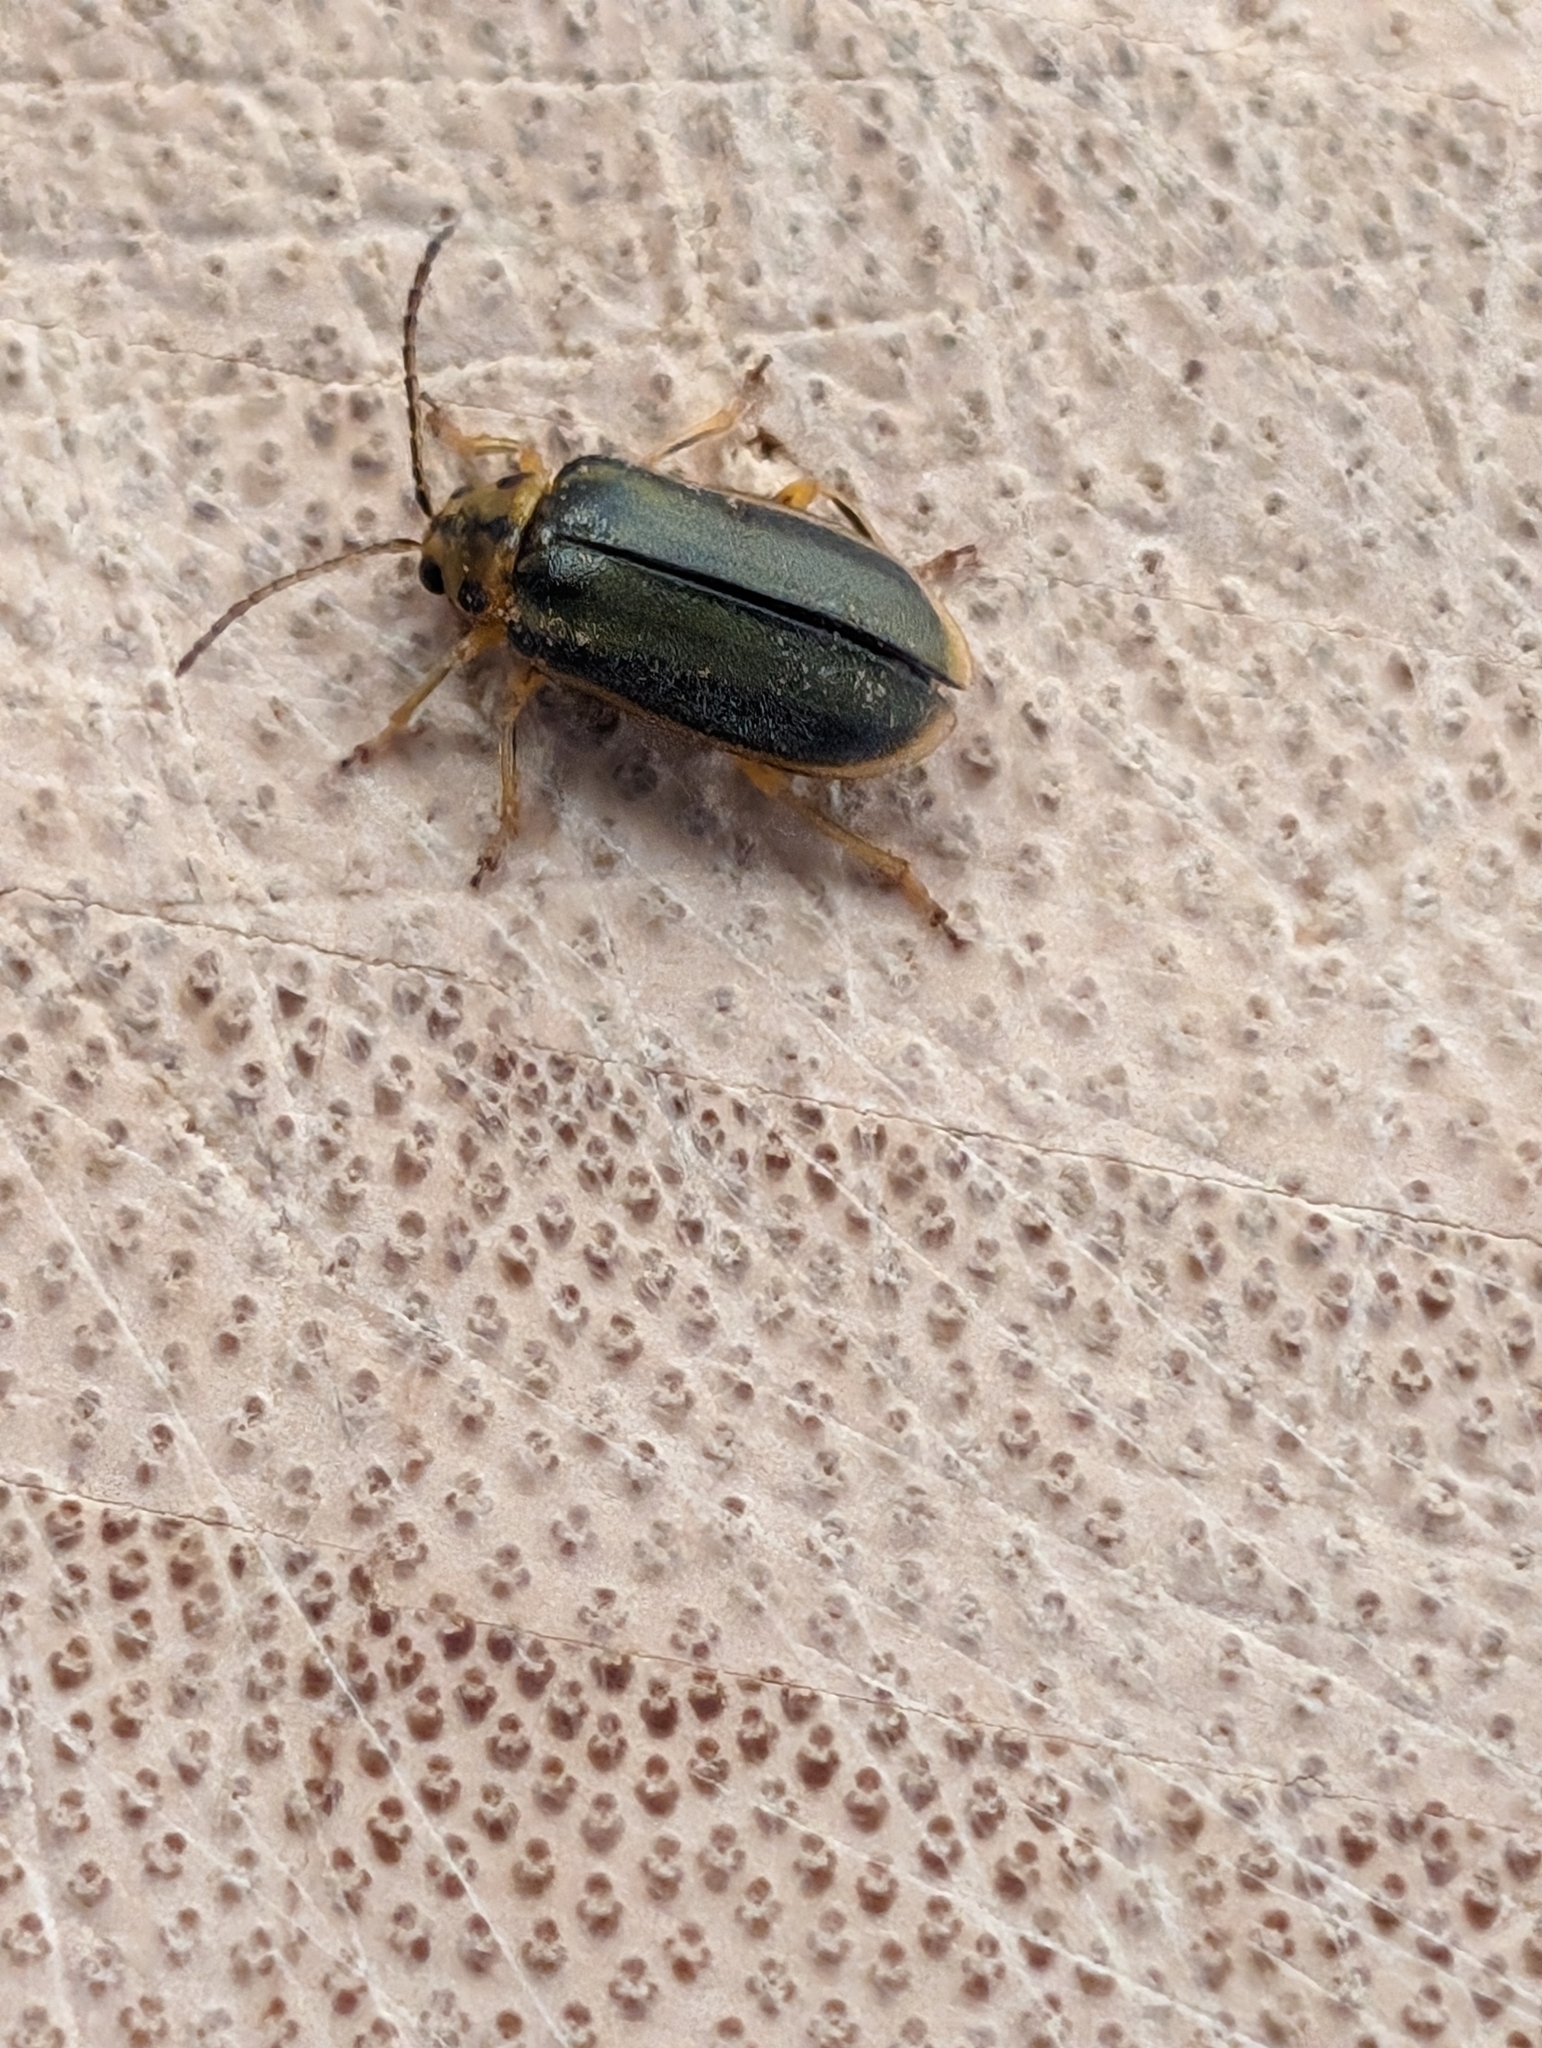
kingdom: Animalia
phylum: Arthropoda
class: Insecta
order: Coleoptera
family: Chrysomelidae
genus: Xanthogaleruca
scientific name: Xanthogaleruca luteola
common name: Elm leaf beetle
